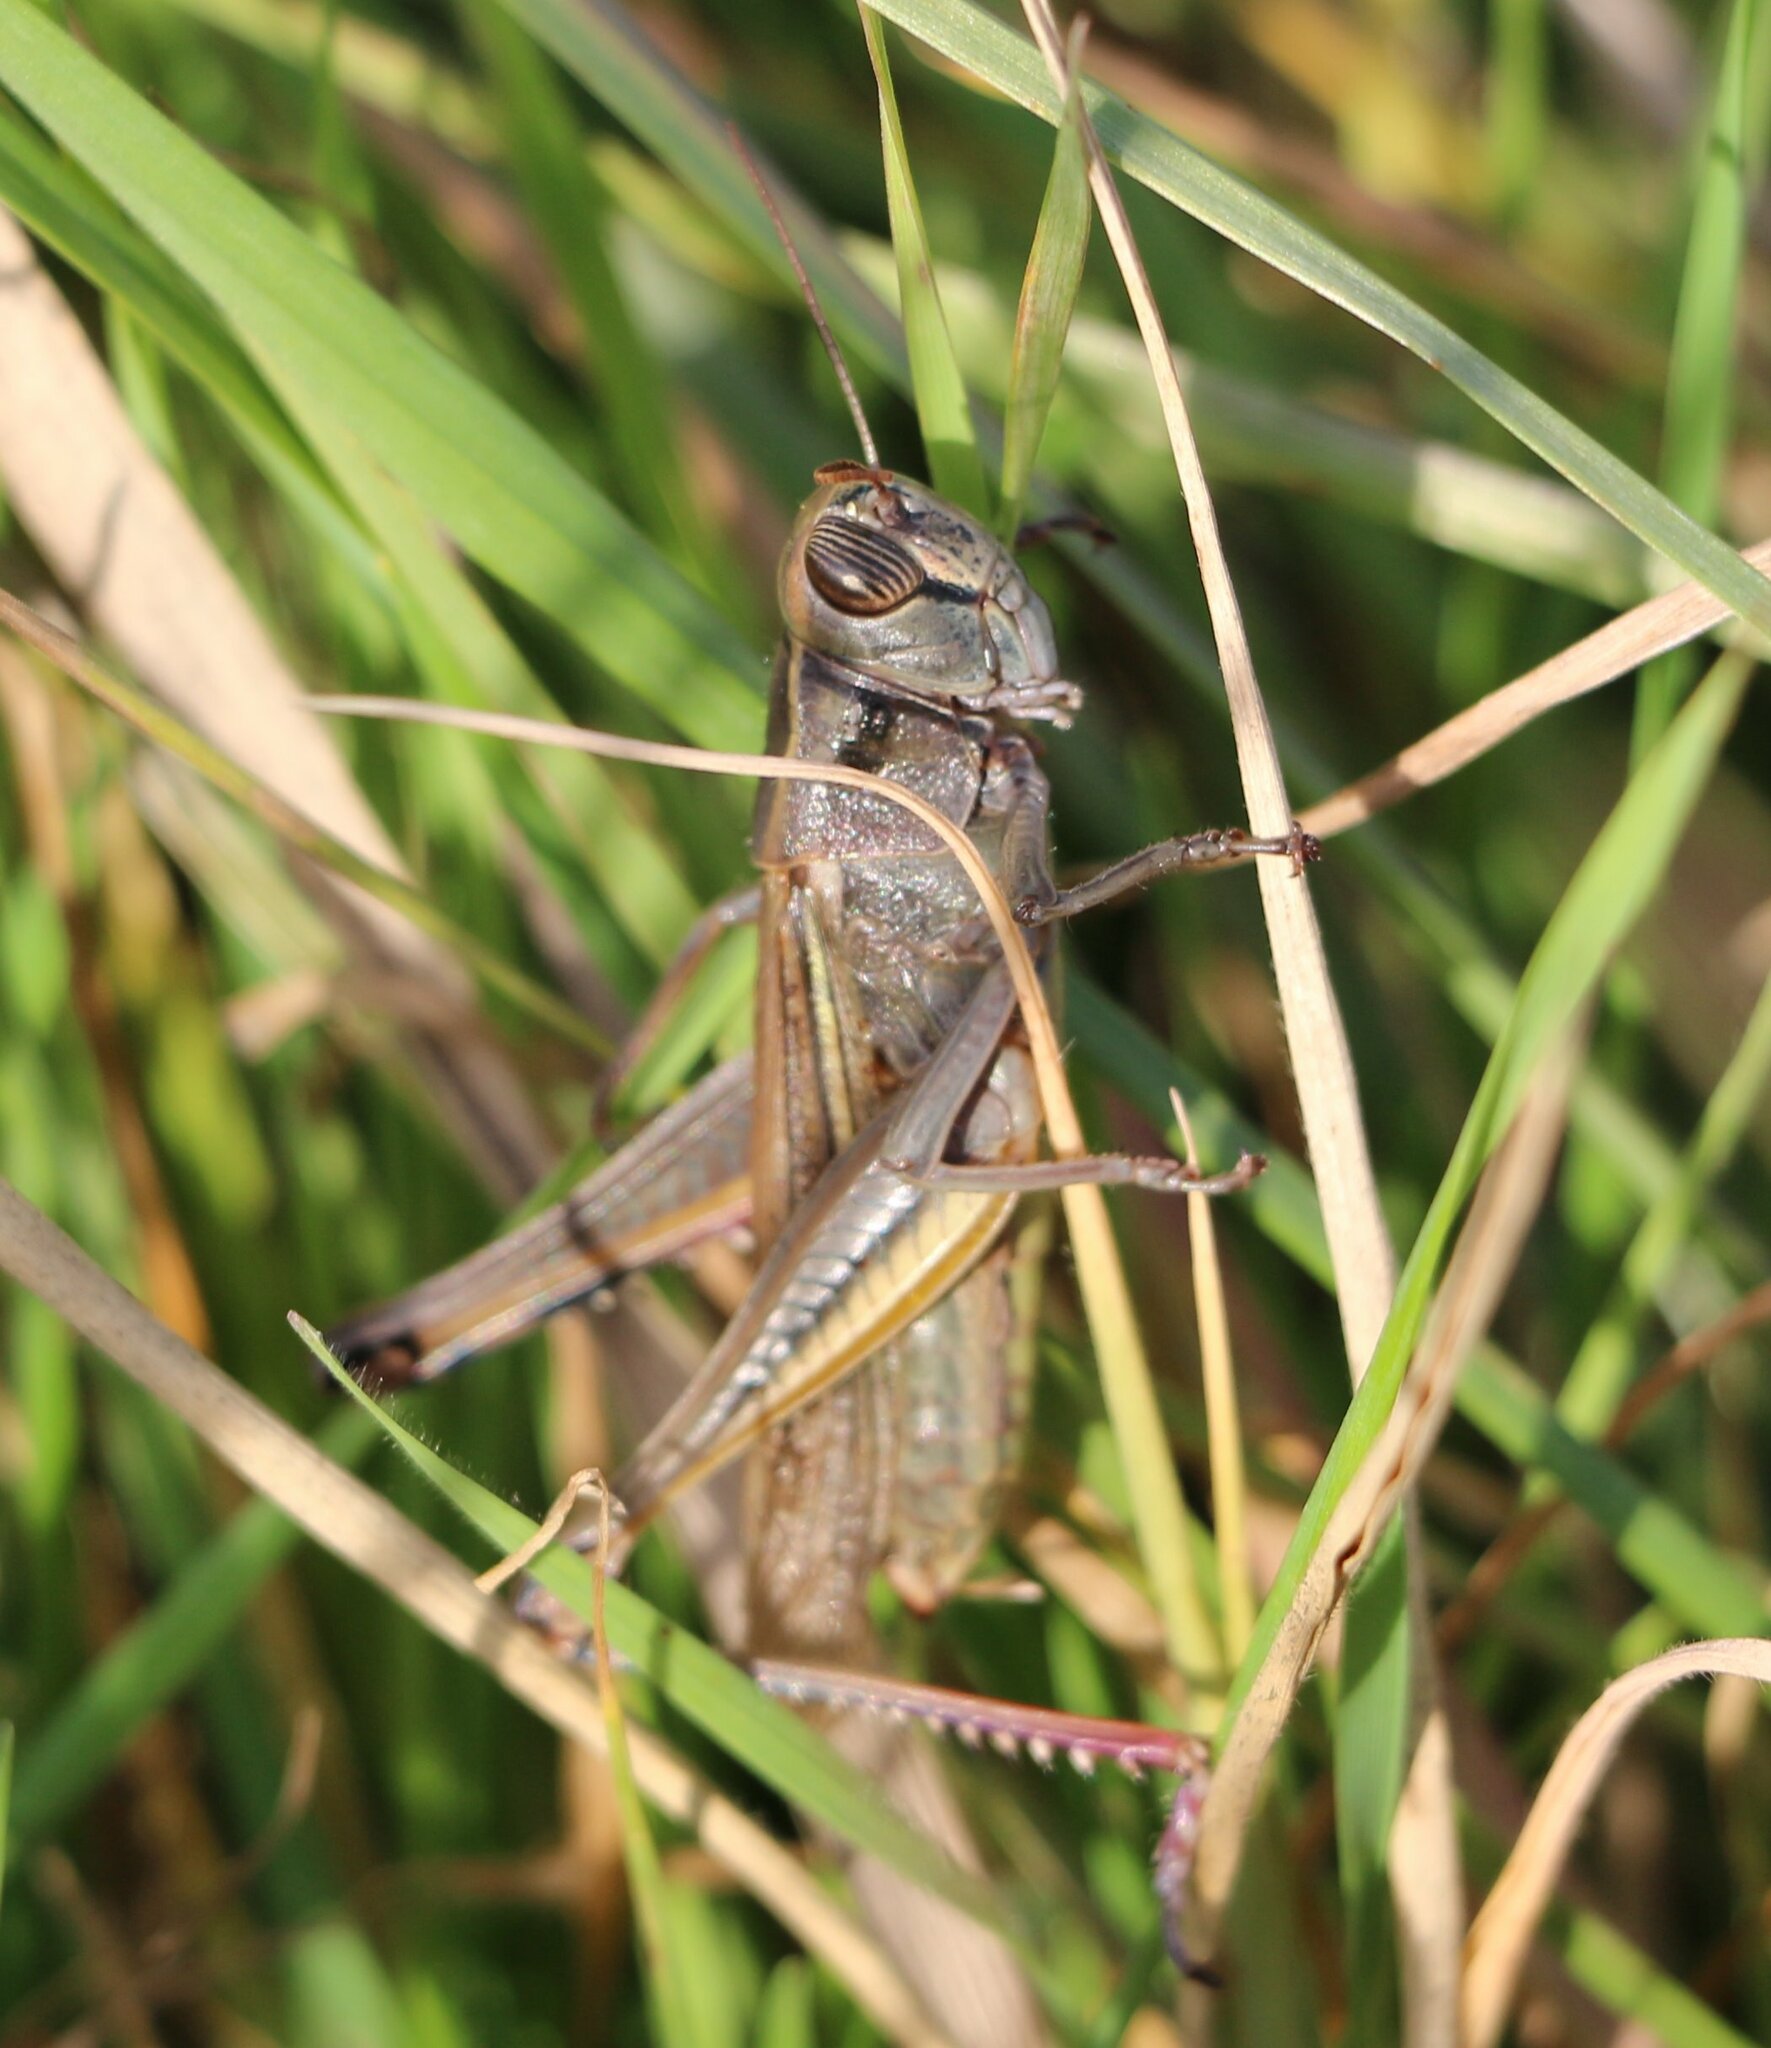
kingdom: Animalia
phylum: Arthropoda
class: Insecta
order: Orthoptera
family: Acrididae
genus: Eyprepocnemis
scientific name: Eyprepocnemis plorans
